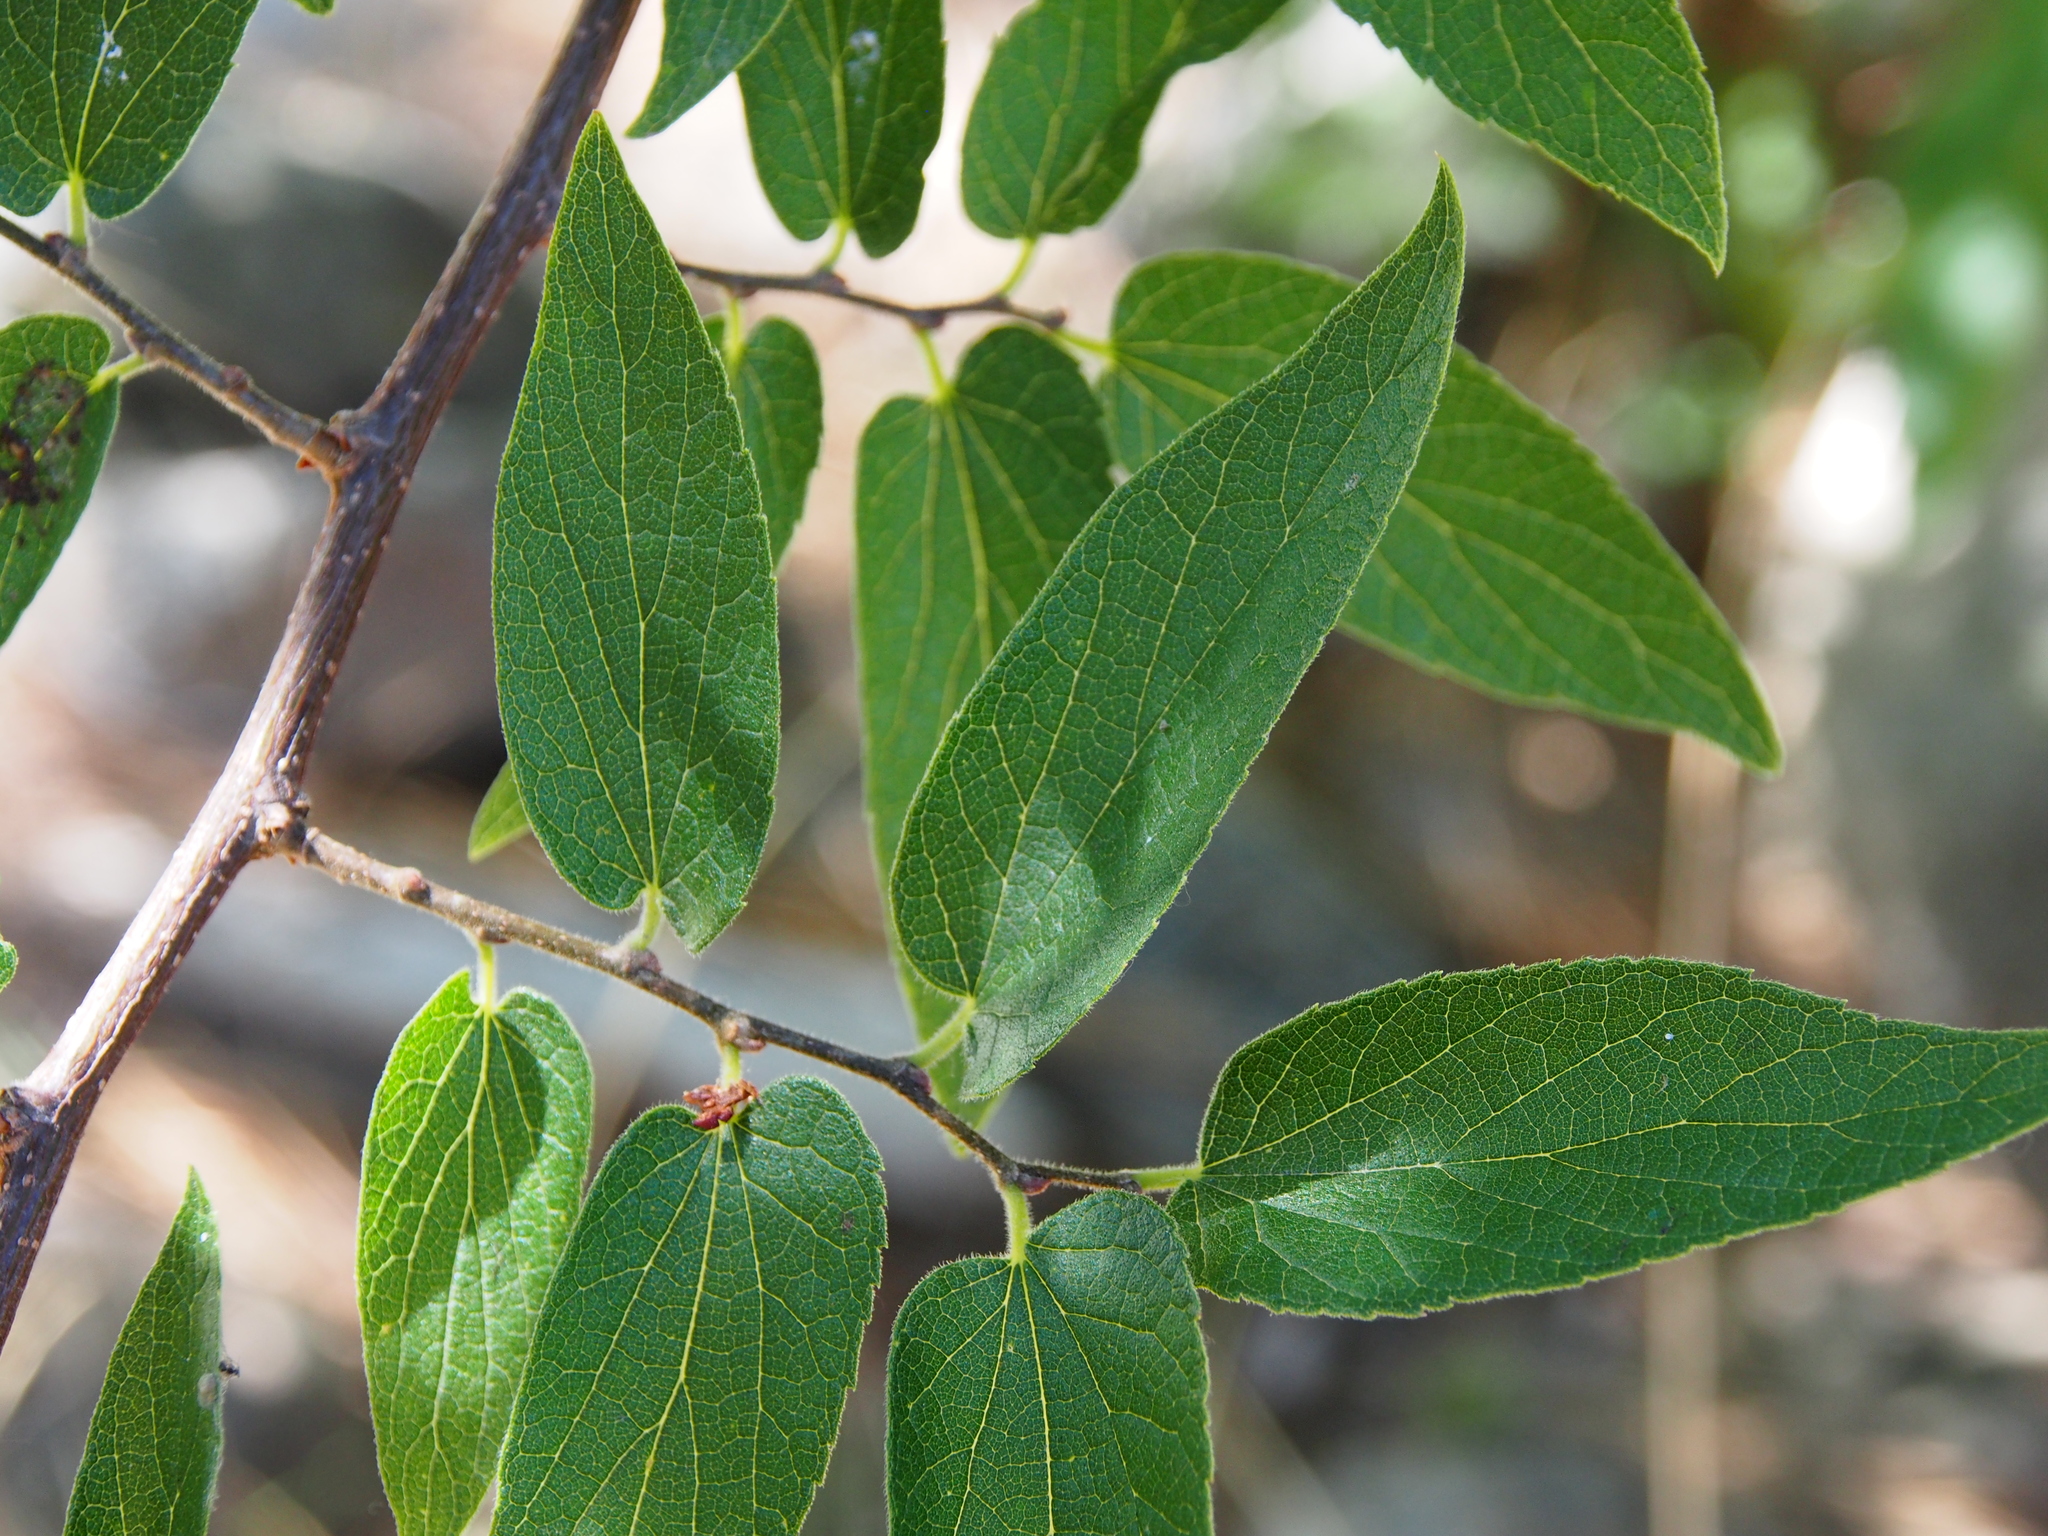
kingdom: Plantae
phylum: Tracheophyta
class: Magnoliopsida
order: Rosales
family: Cannabaceae
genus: Celtis
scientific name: Celtis reticulata
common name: Netleaf hackberry
